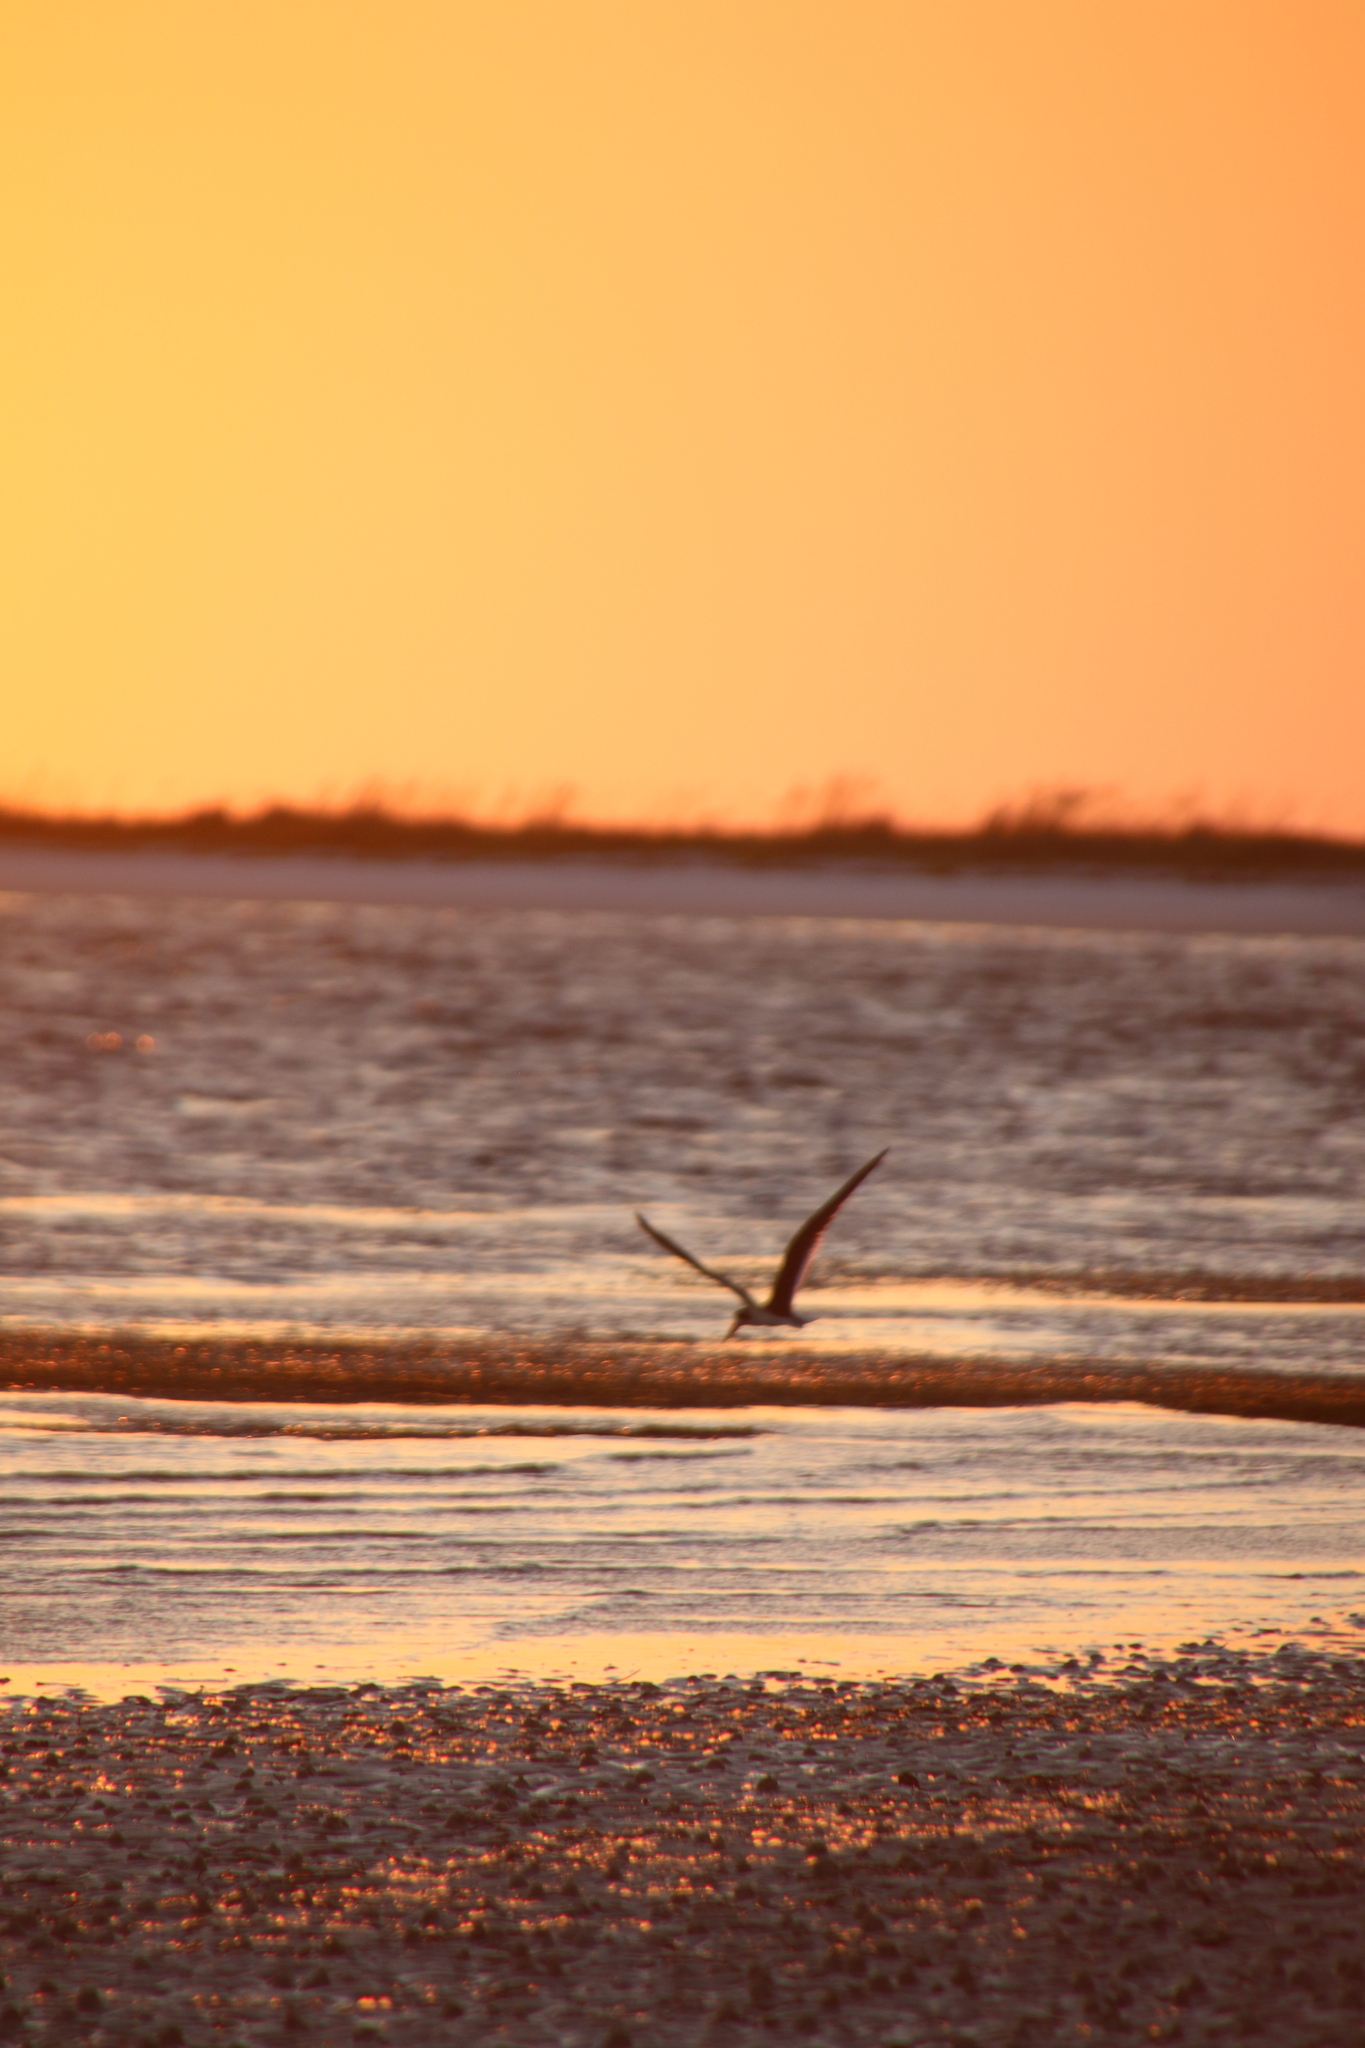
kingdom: Animalia
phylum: Chordata
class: Aves
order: Charadriiformes
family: Laridae
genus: Rynchops
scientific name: Rynchops niger
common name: Black skimmer
